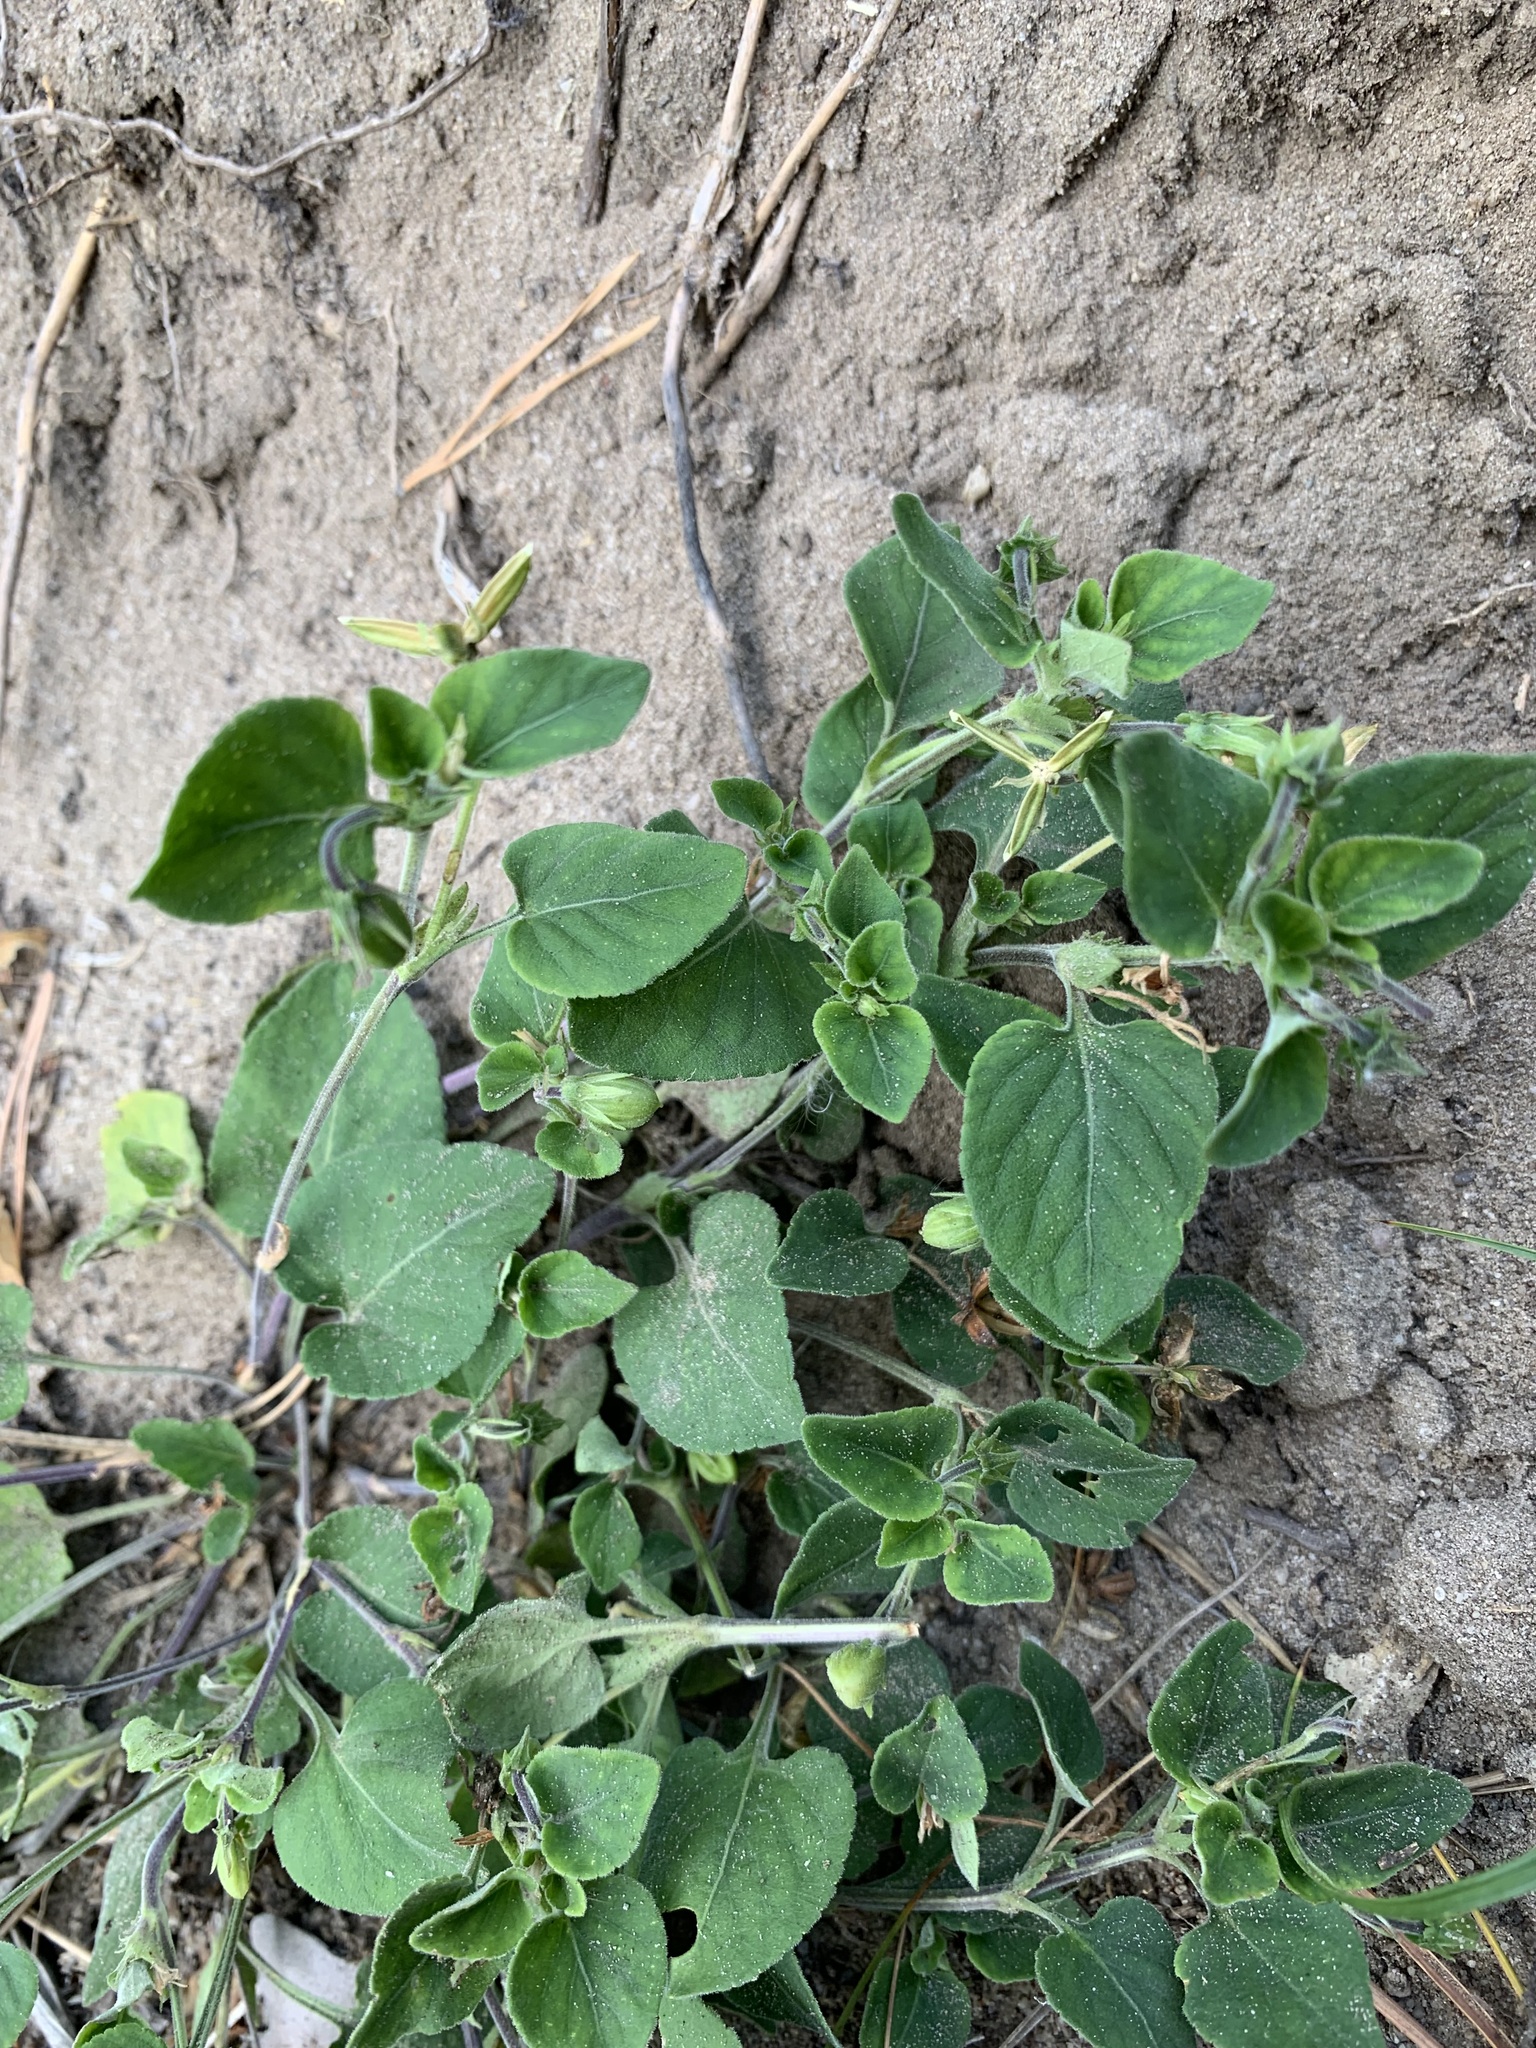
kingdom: Plantae
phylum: Tracheophyta
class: Magnoliopsida
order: Malpighiales
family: Violaceae
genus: Viola
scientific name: Viola rupestris
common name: Teesdale violet
